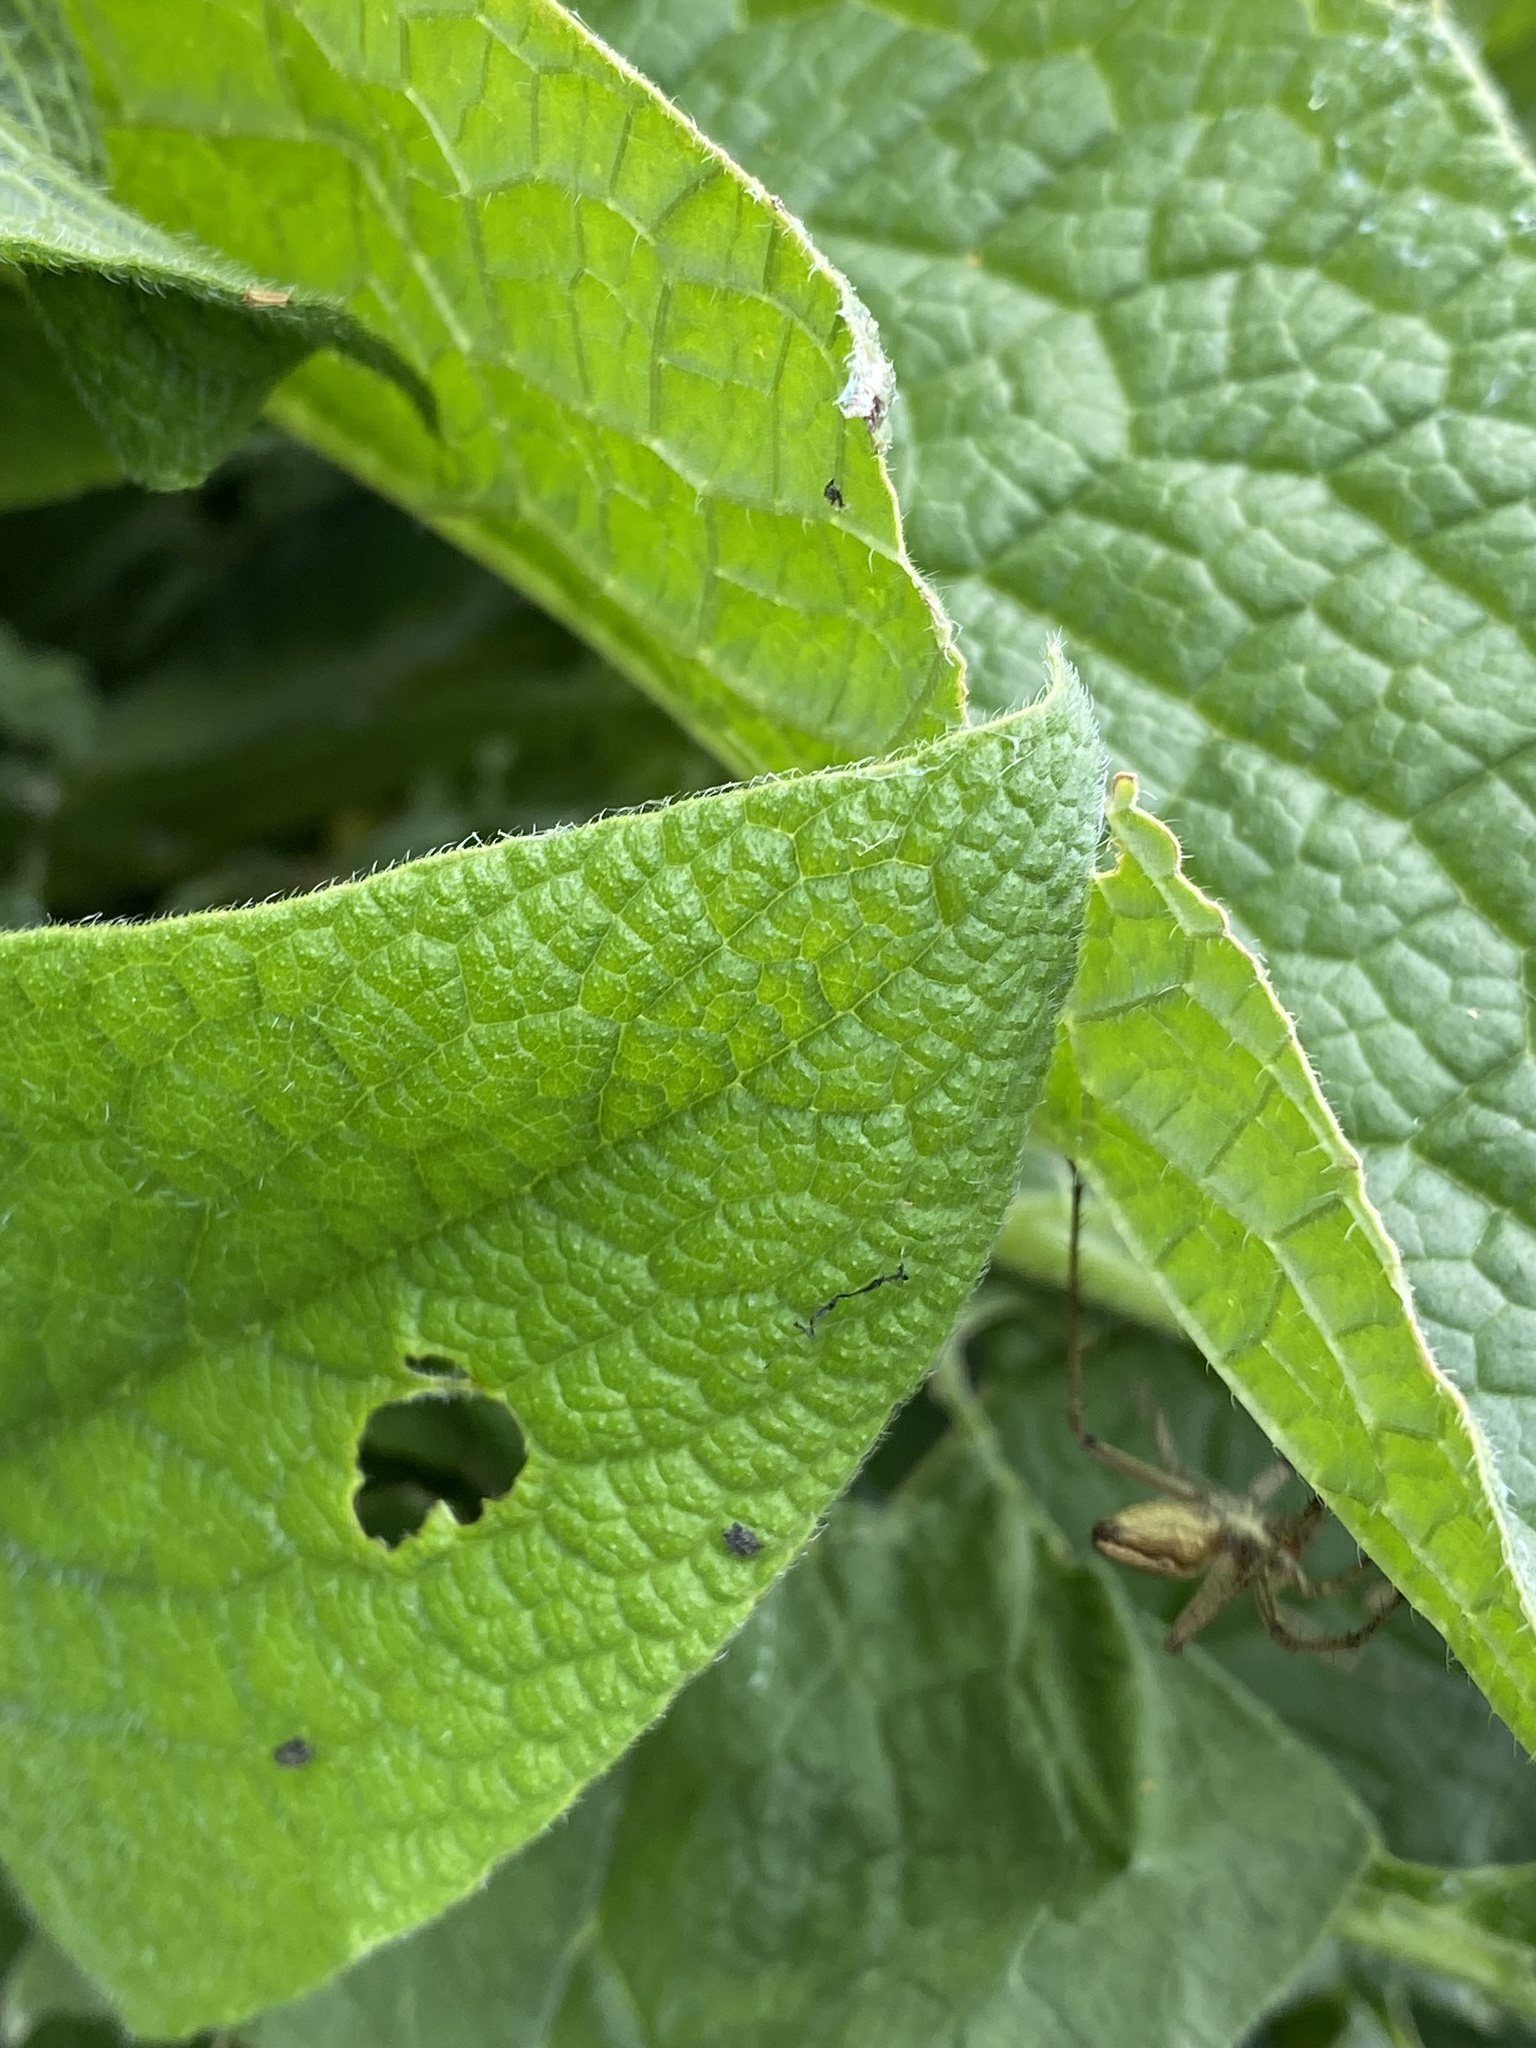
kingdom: Animalia
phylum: Arthropoda
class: Arachnida
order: Araneae
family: Pisauridae
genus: Pisaura
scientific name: Pisaura mirabilis
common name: Tent spider
